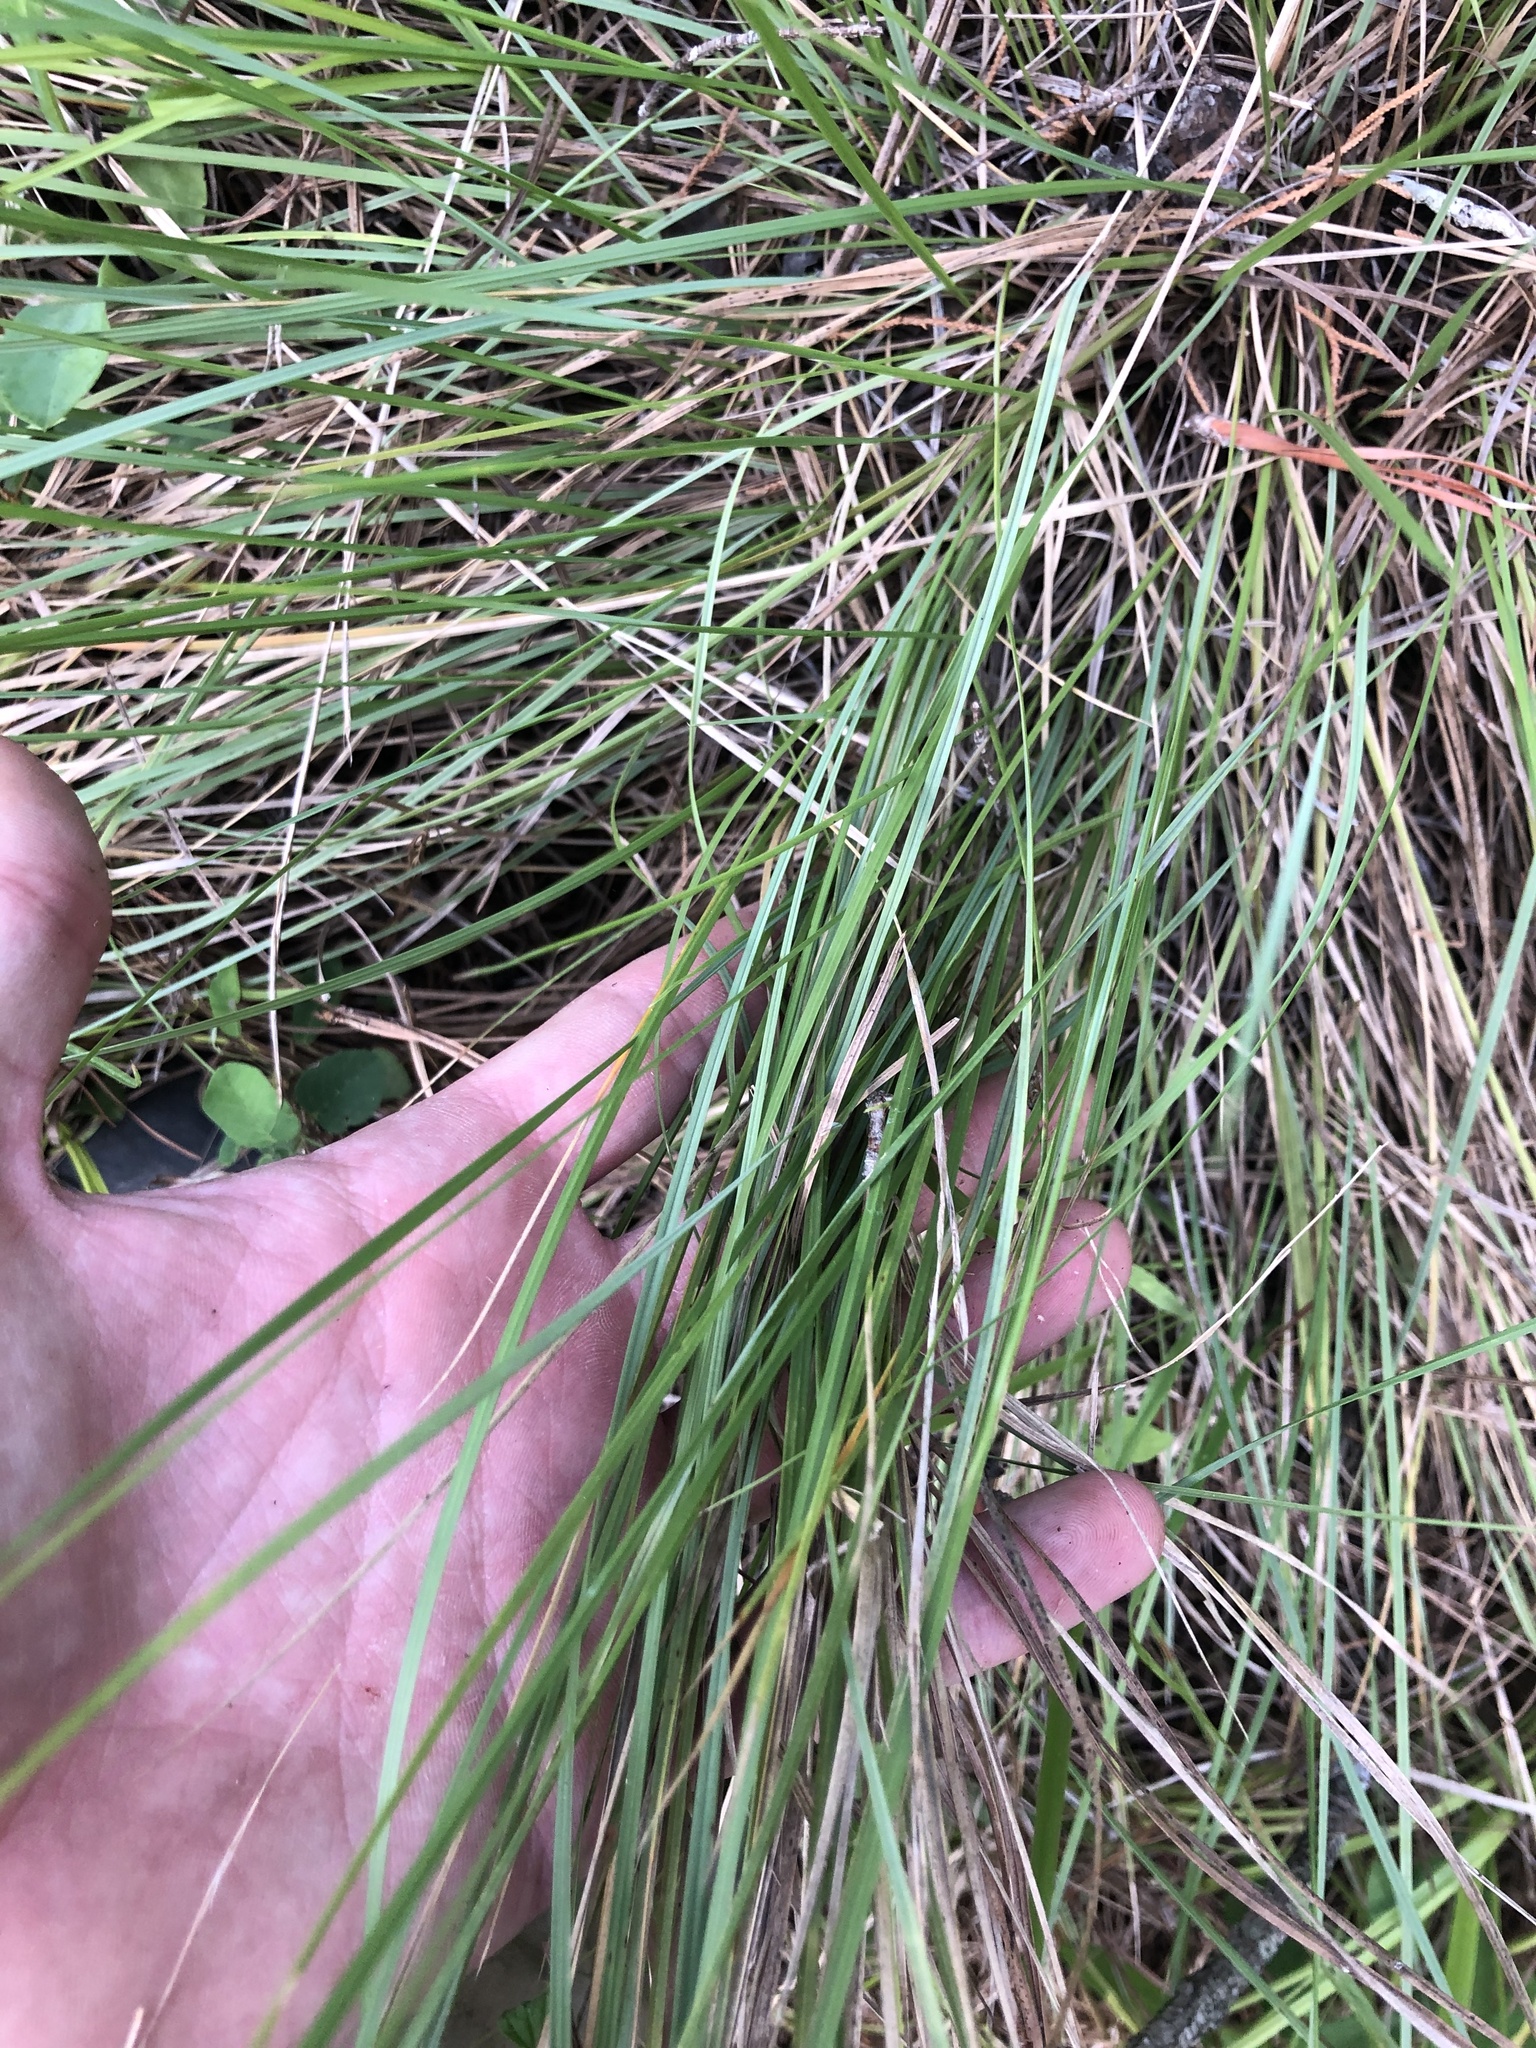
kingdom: Plantae
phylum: Tracheophyta
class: Liliopsida
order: Poales
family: Poaceae
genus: Muhlenbergia
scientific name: Muhlenbergia capillaris
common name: Purple grass
